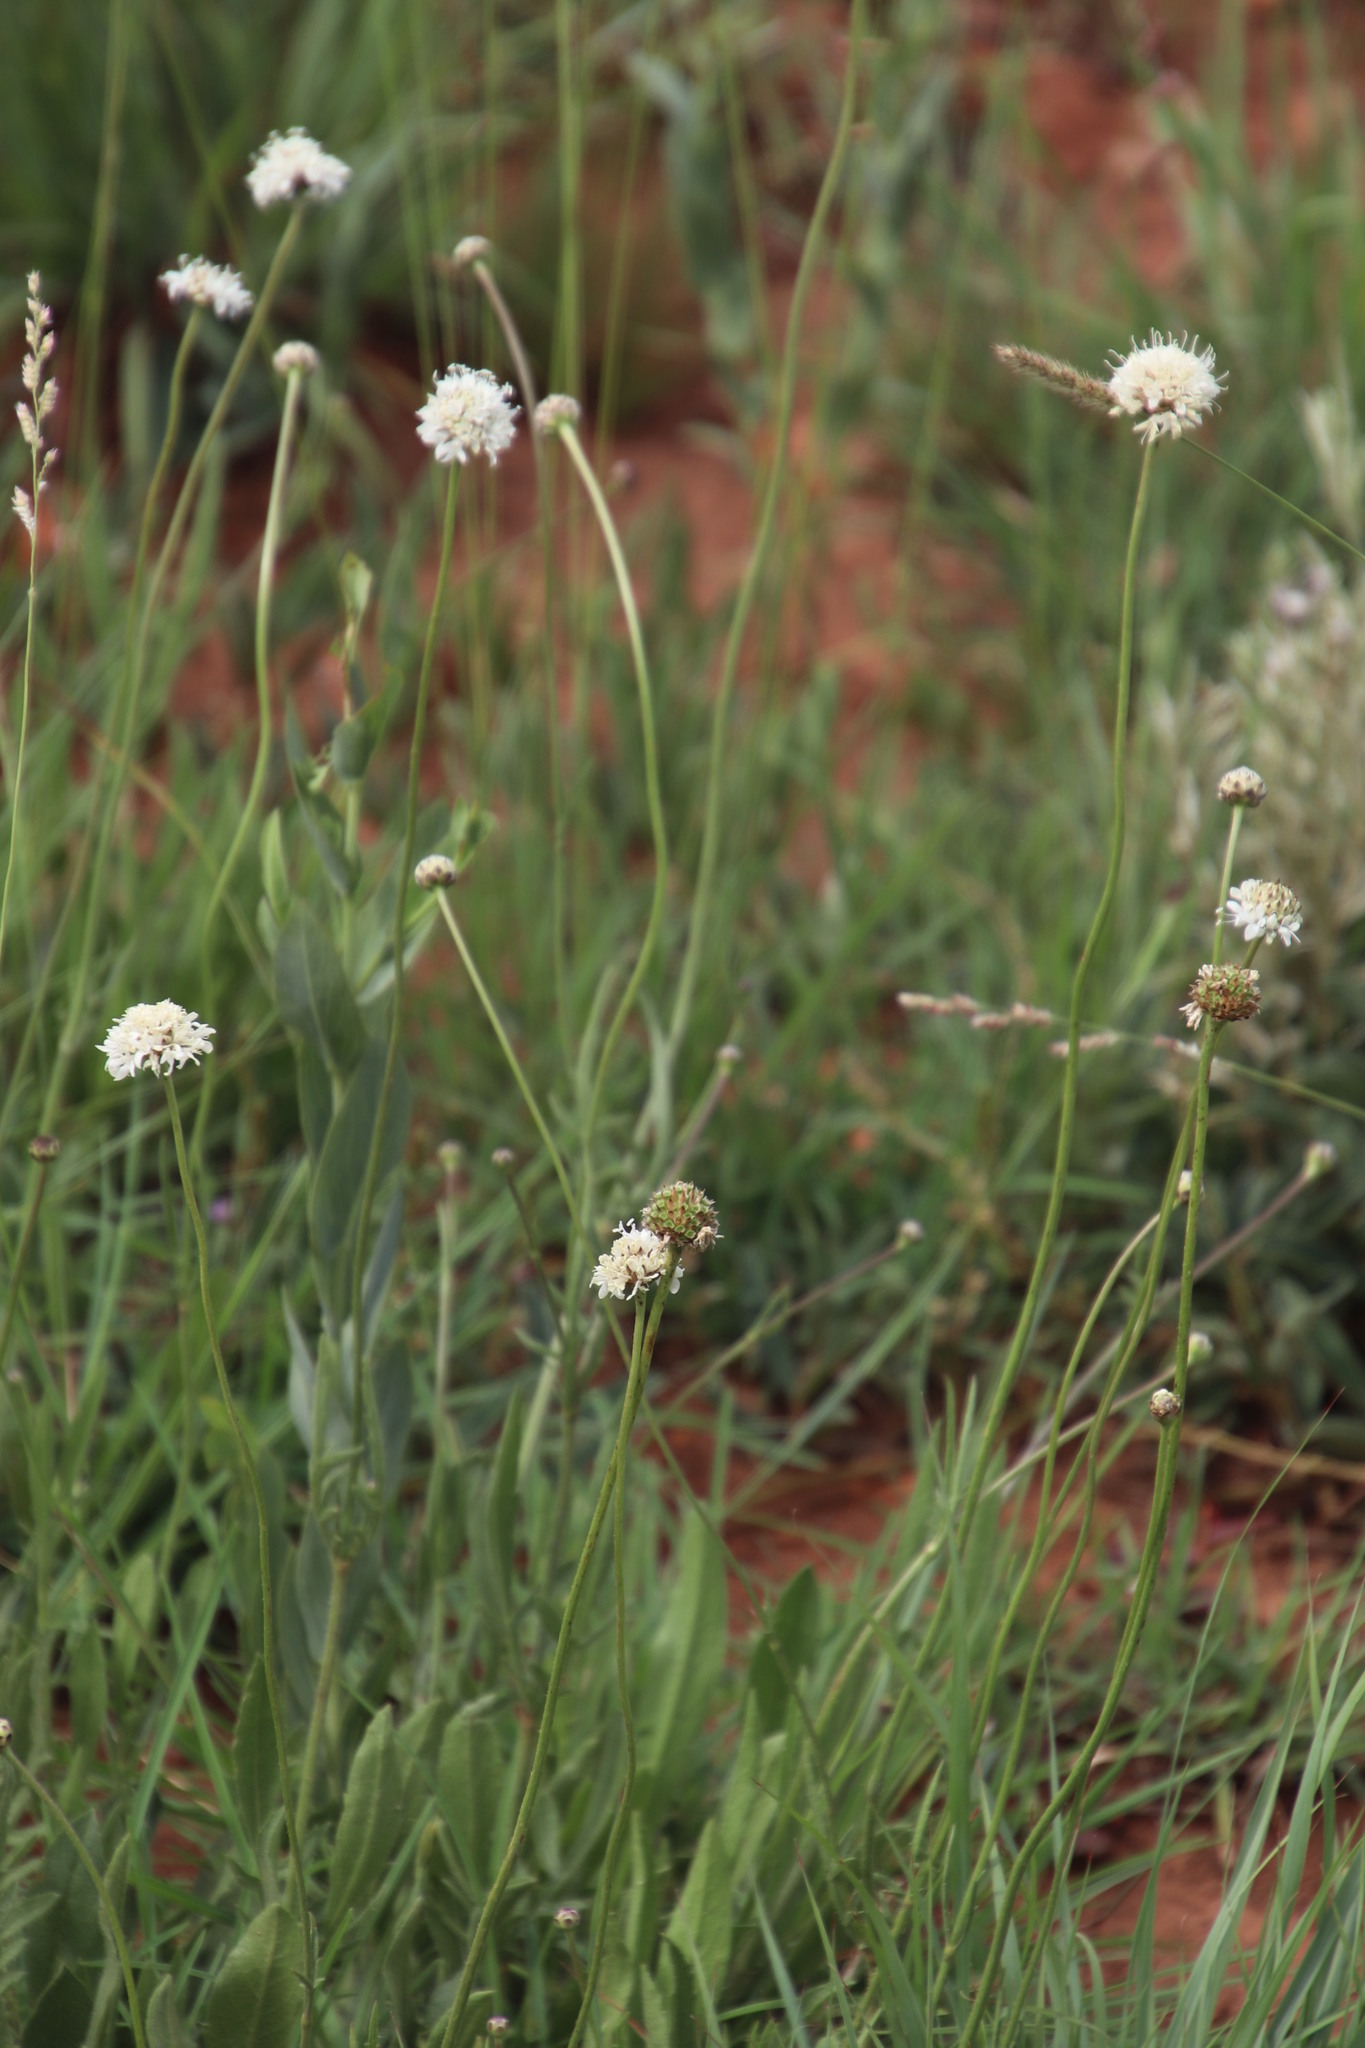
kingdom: Plantae
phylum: Tracheophyta
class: Magnoliopsida
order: Dipsacales
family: Caprifoliaceae
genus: Cephalaria
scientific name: Cephalaria zeyheriana
